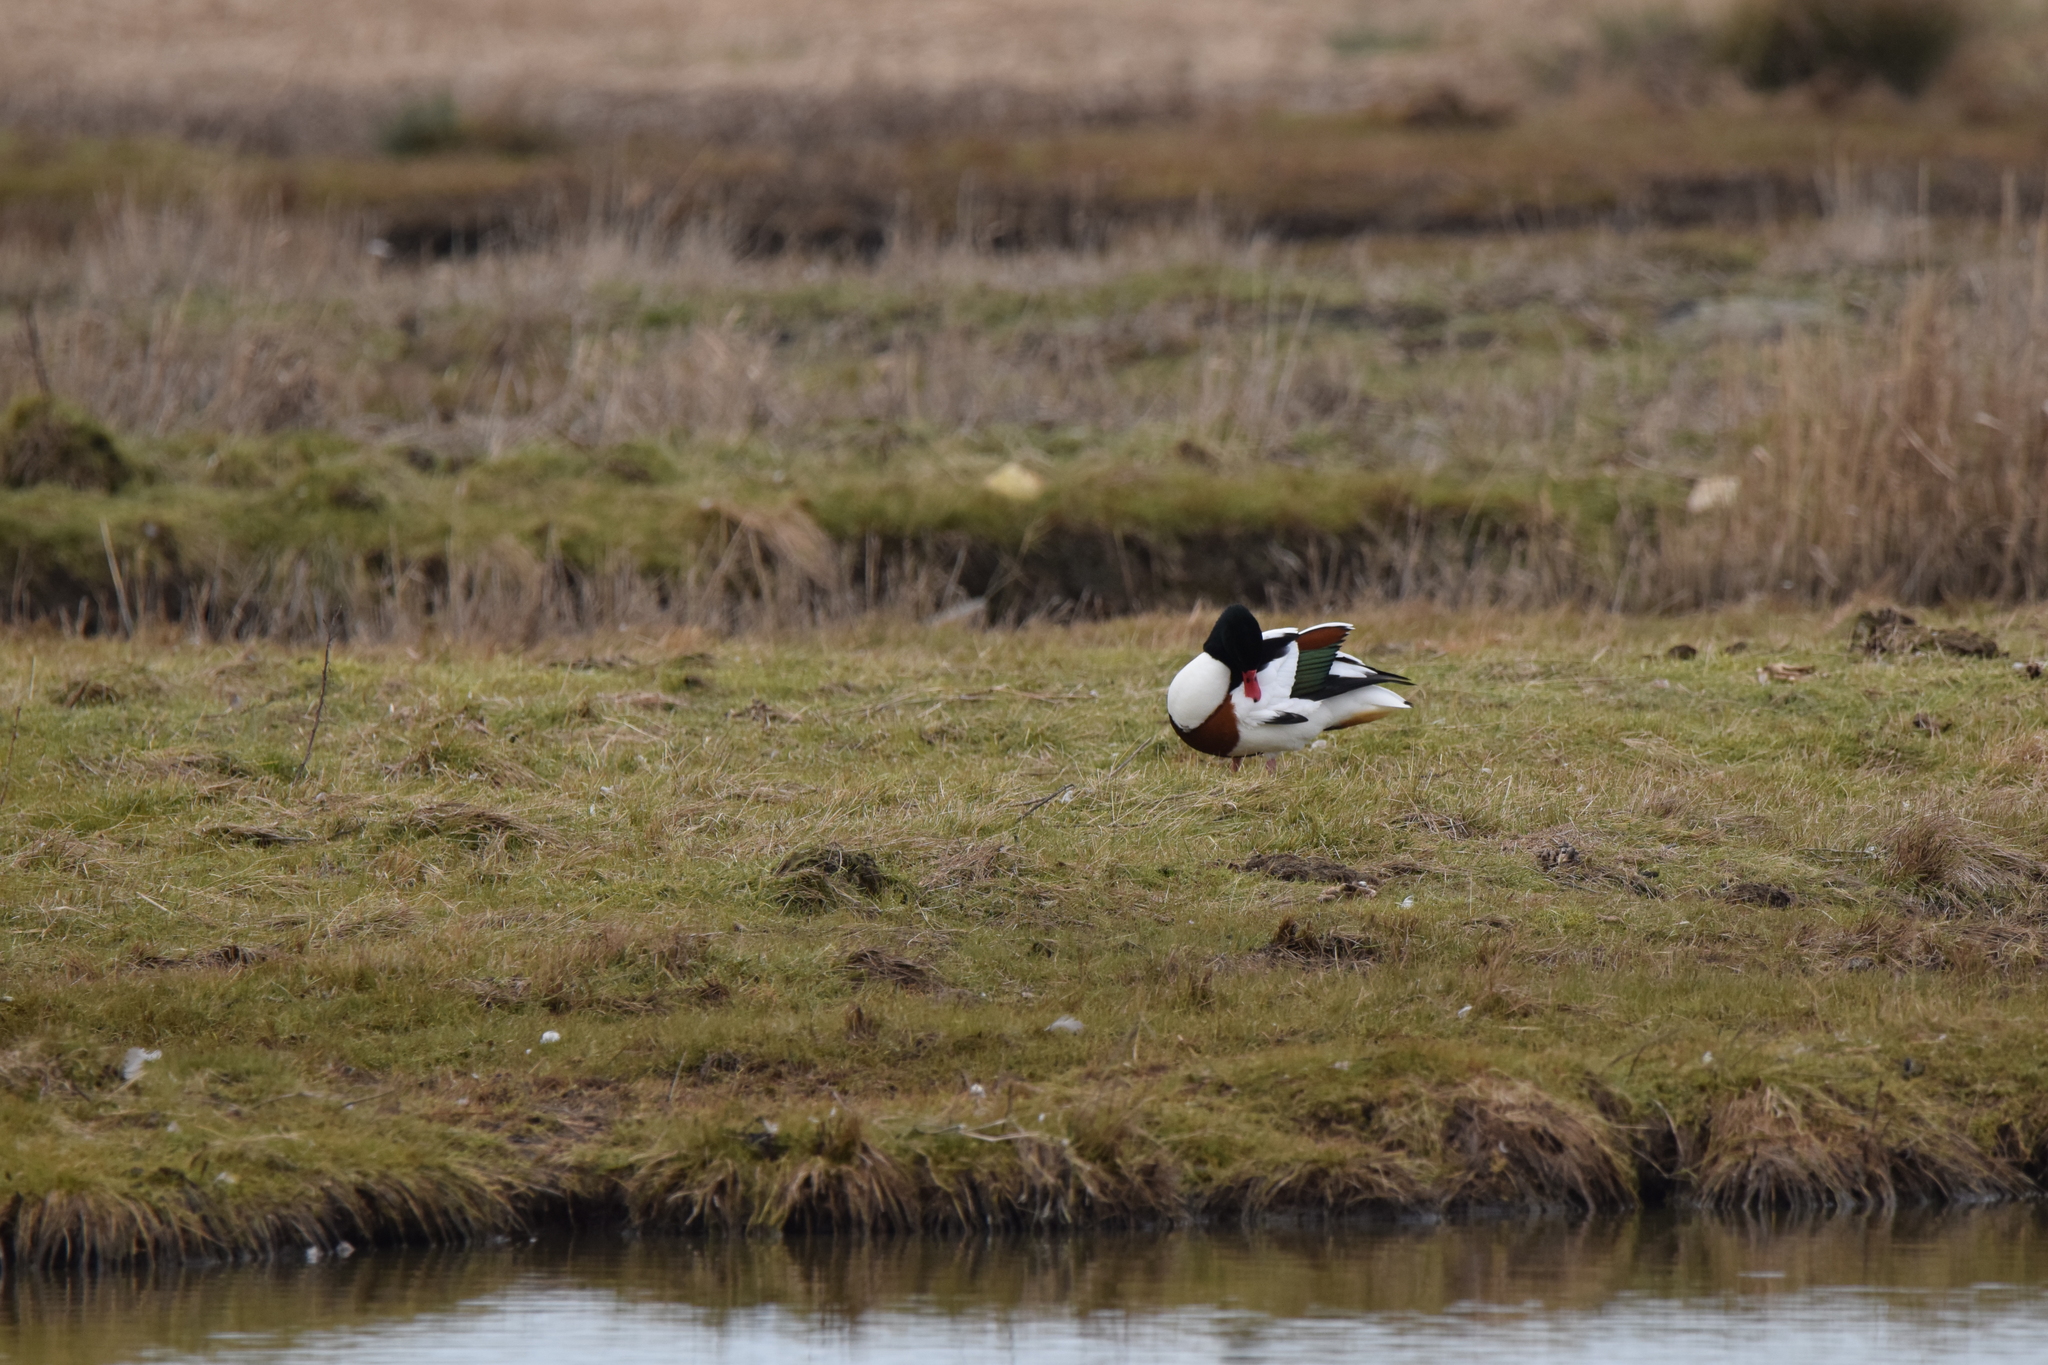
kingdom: Animalia
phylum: Chordata
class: Aves
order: Anseriformes
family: Anatidae
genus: Tadorna
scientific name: Tadorna tadorna
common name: Common shelduck
